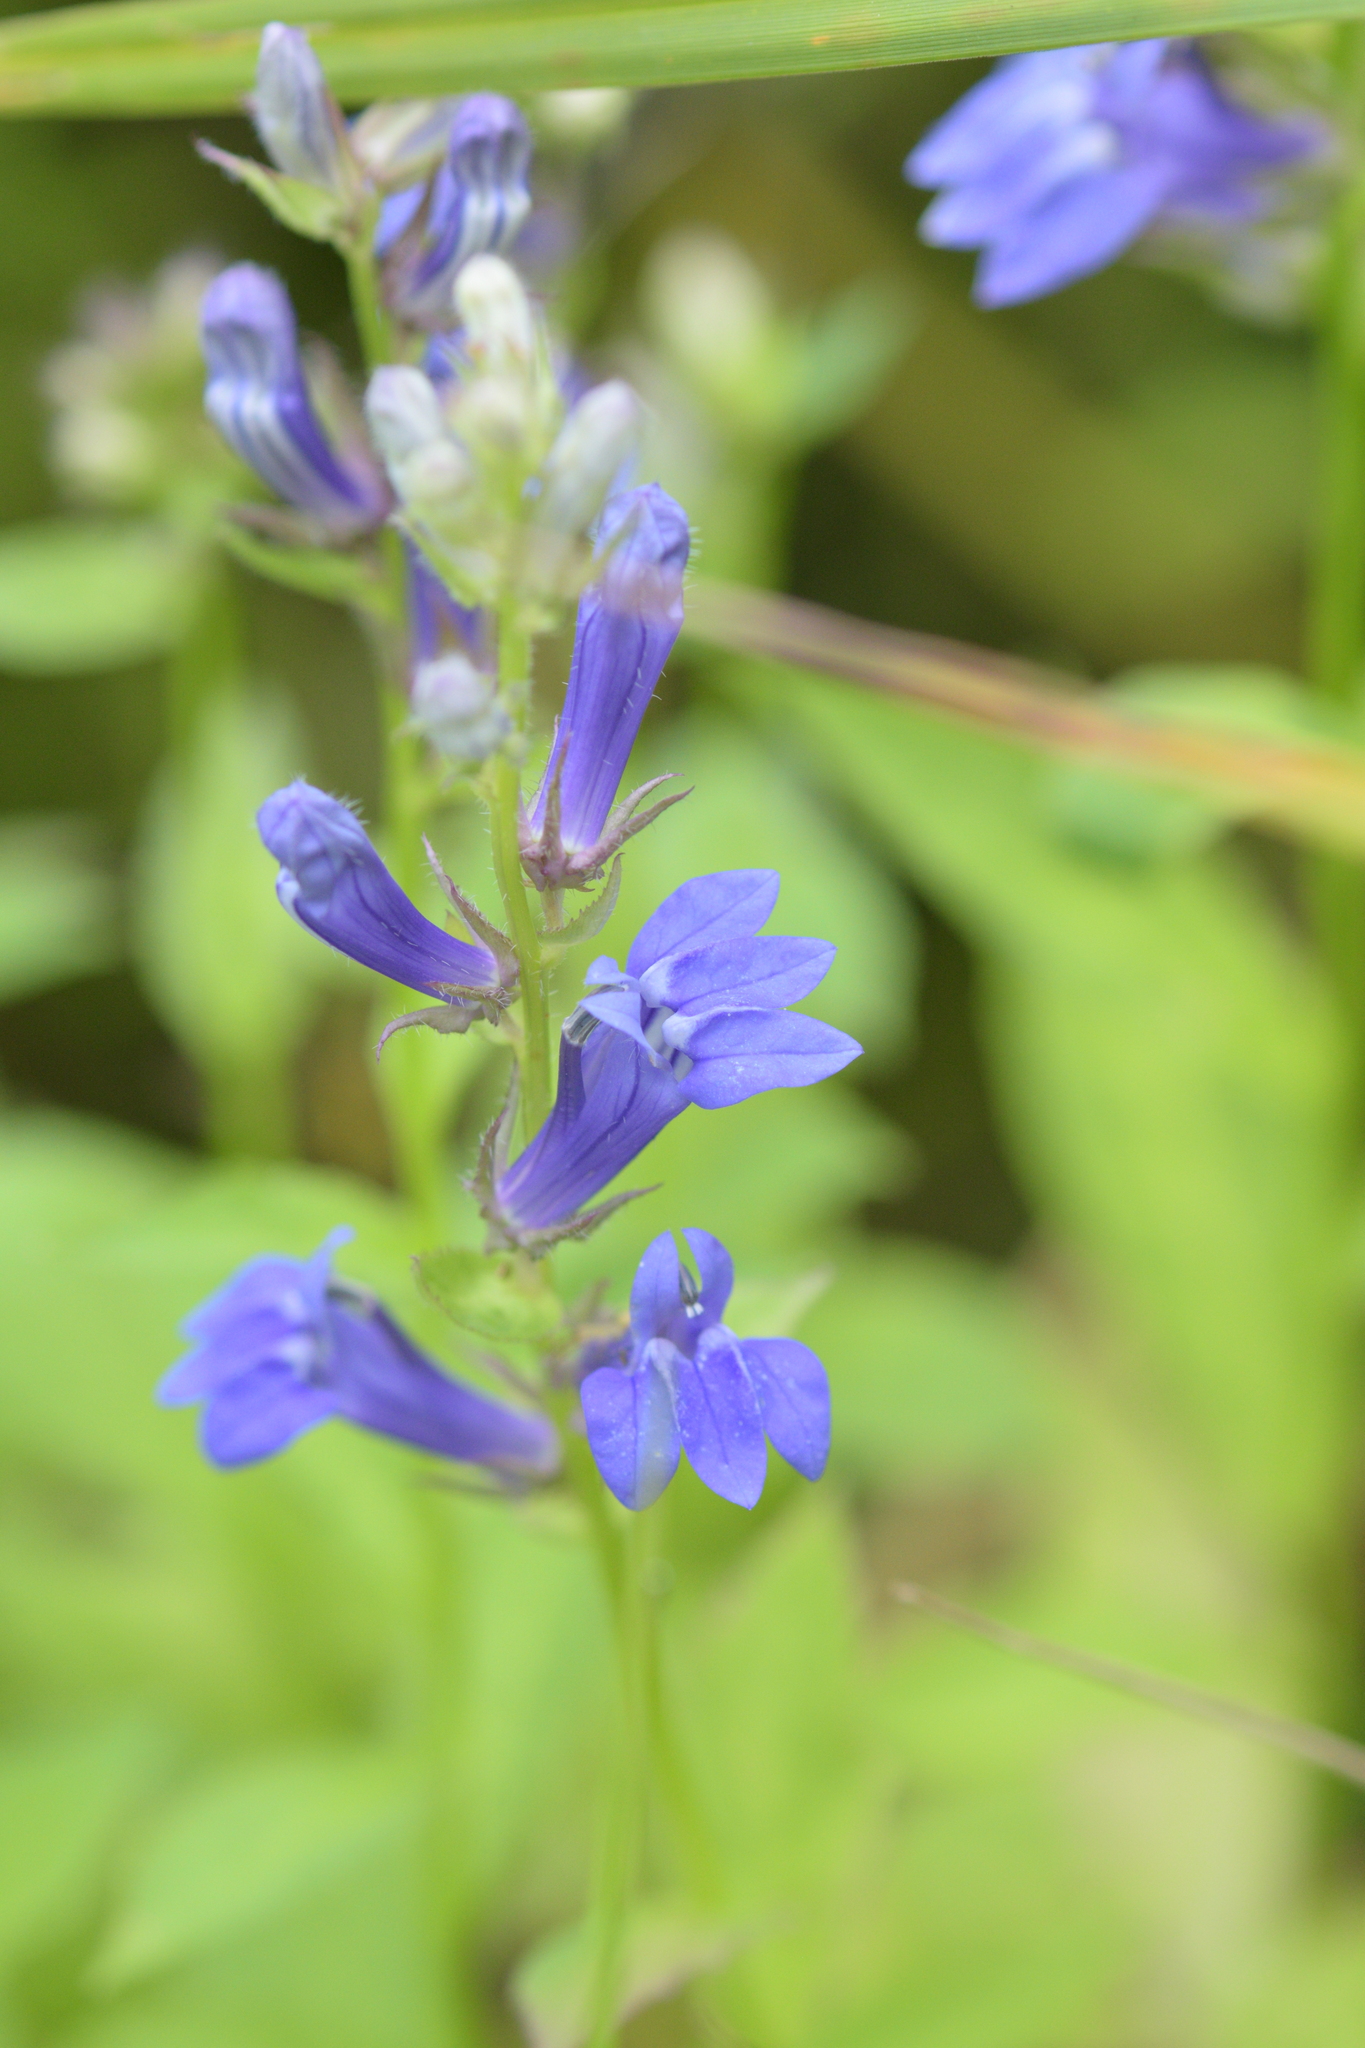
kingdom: Plantae
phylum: Tracheophyta
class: Magnoliopsida
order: Asterales
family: Campanulaceae
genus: Lobelia
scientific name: Lobelia siphilitica
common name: Great lobelia
